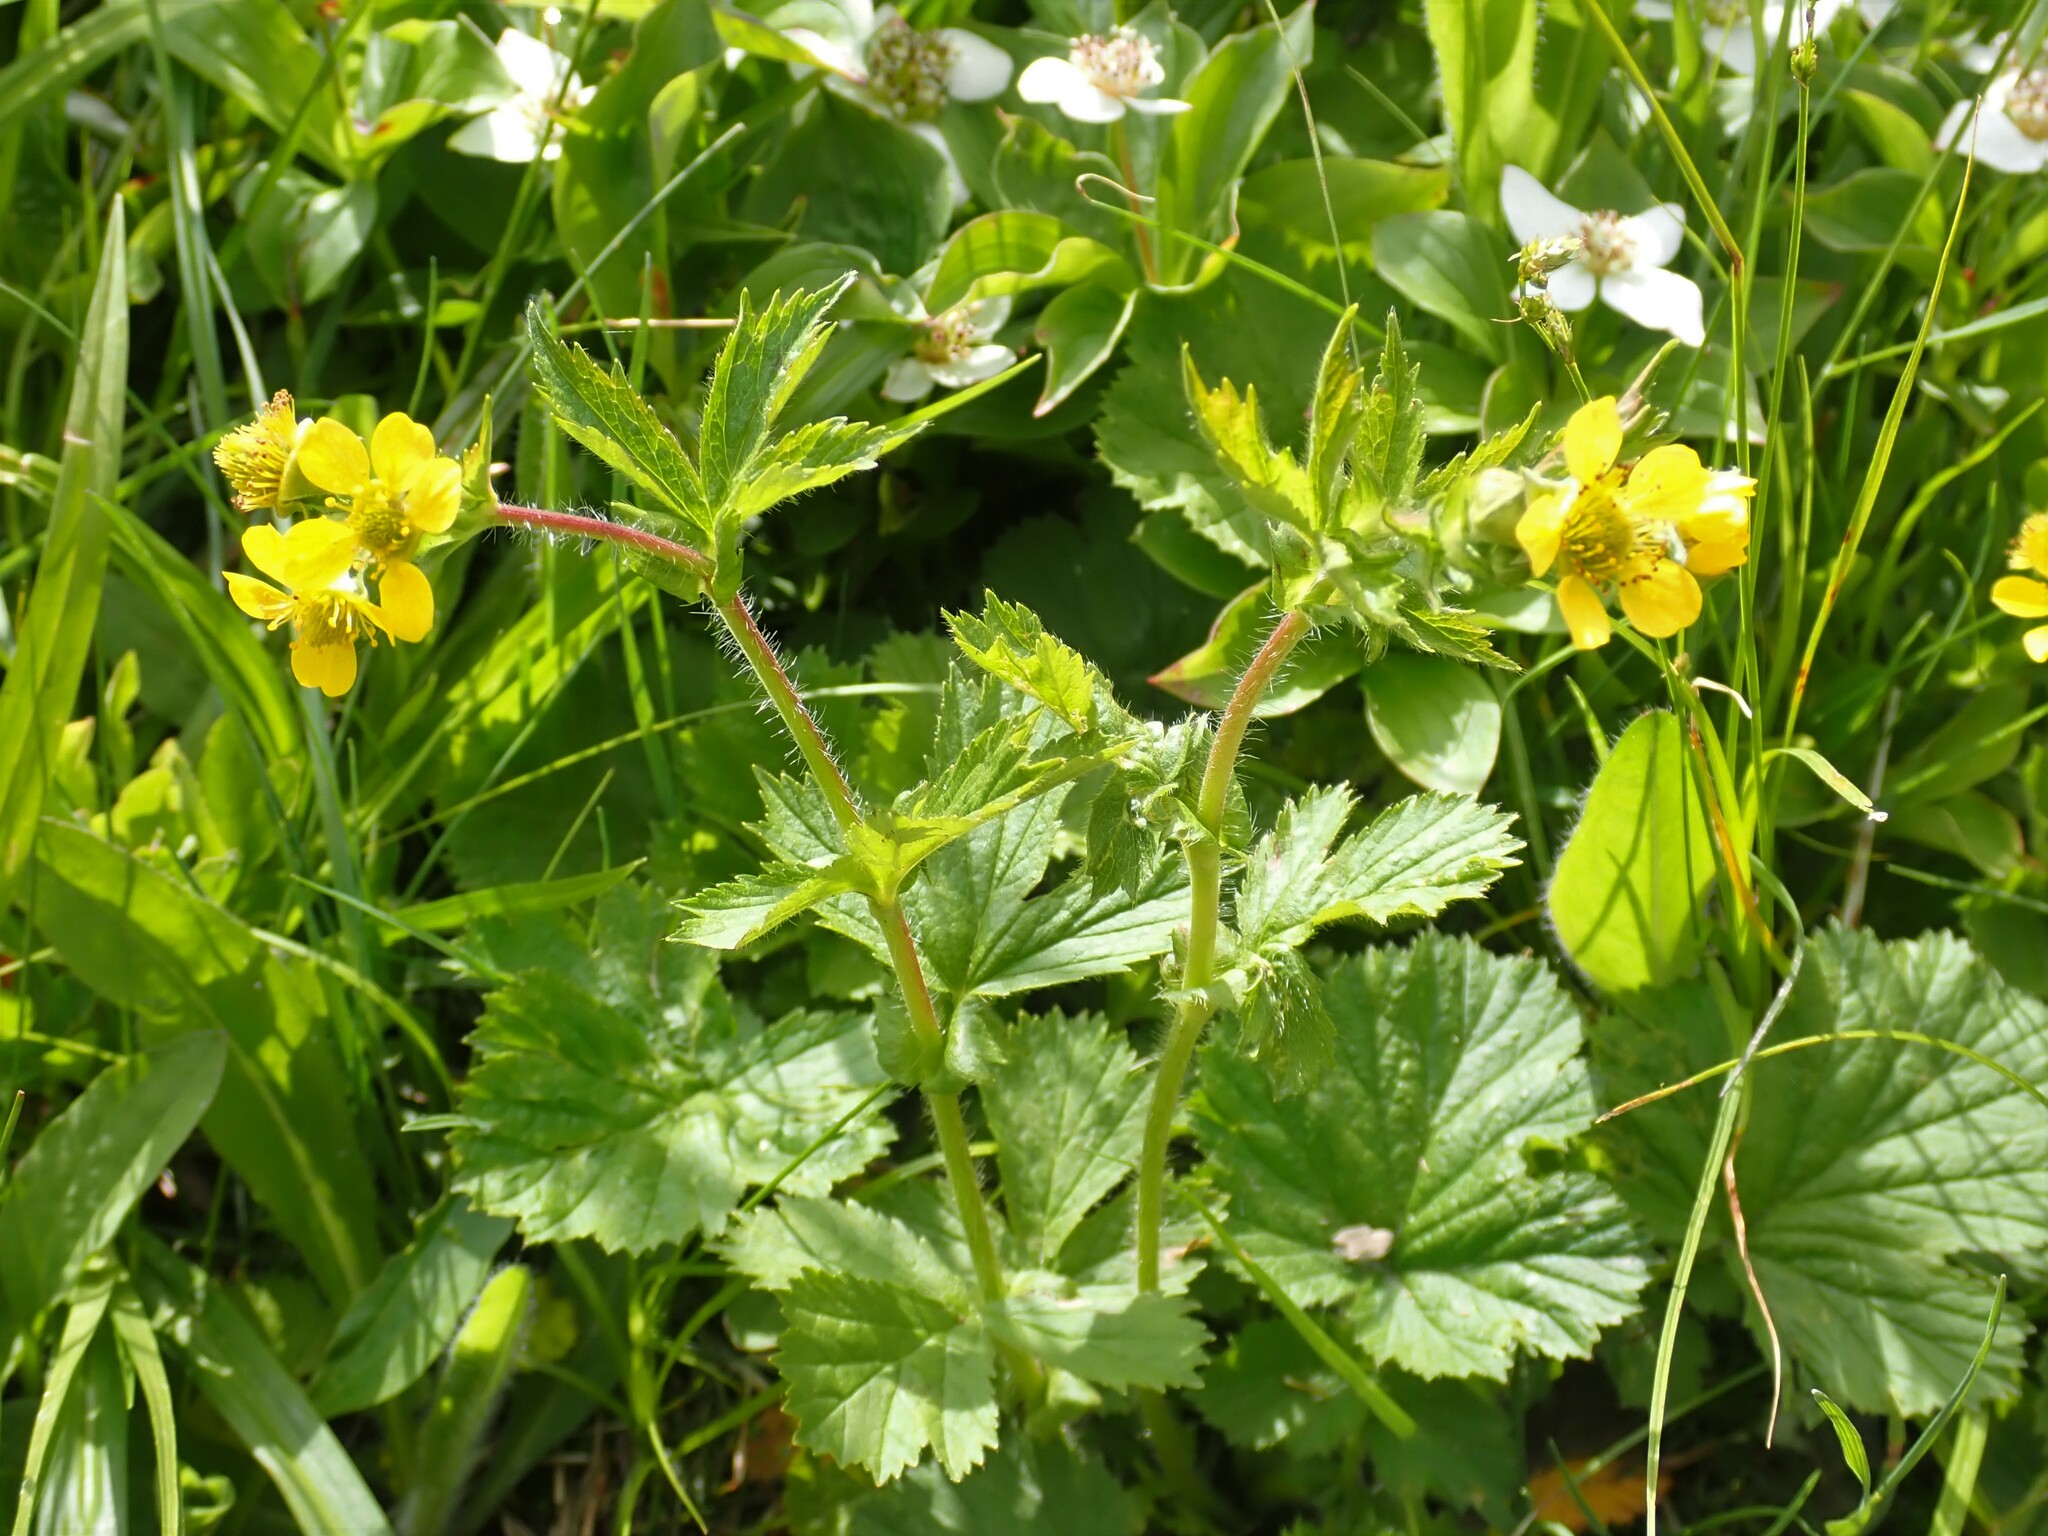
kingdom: Plantae
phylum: Tracheophyta
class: Magnoliopsida
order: Rosales
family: Rosaceae
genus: Geum
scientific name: Geum macrophyllum
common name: Large-leaved avens
